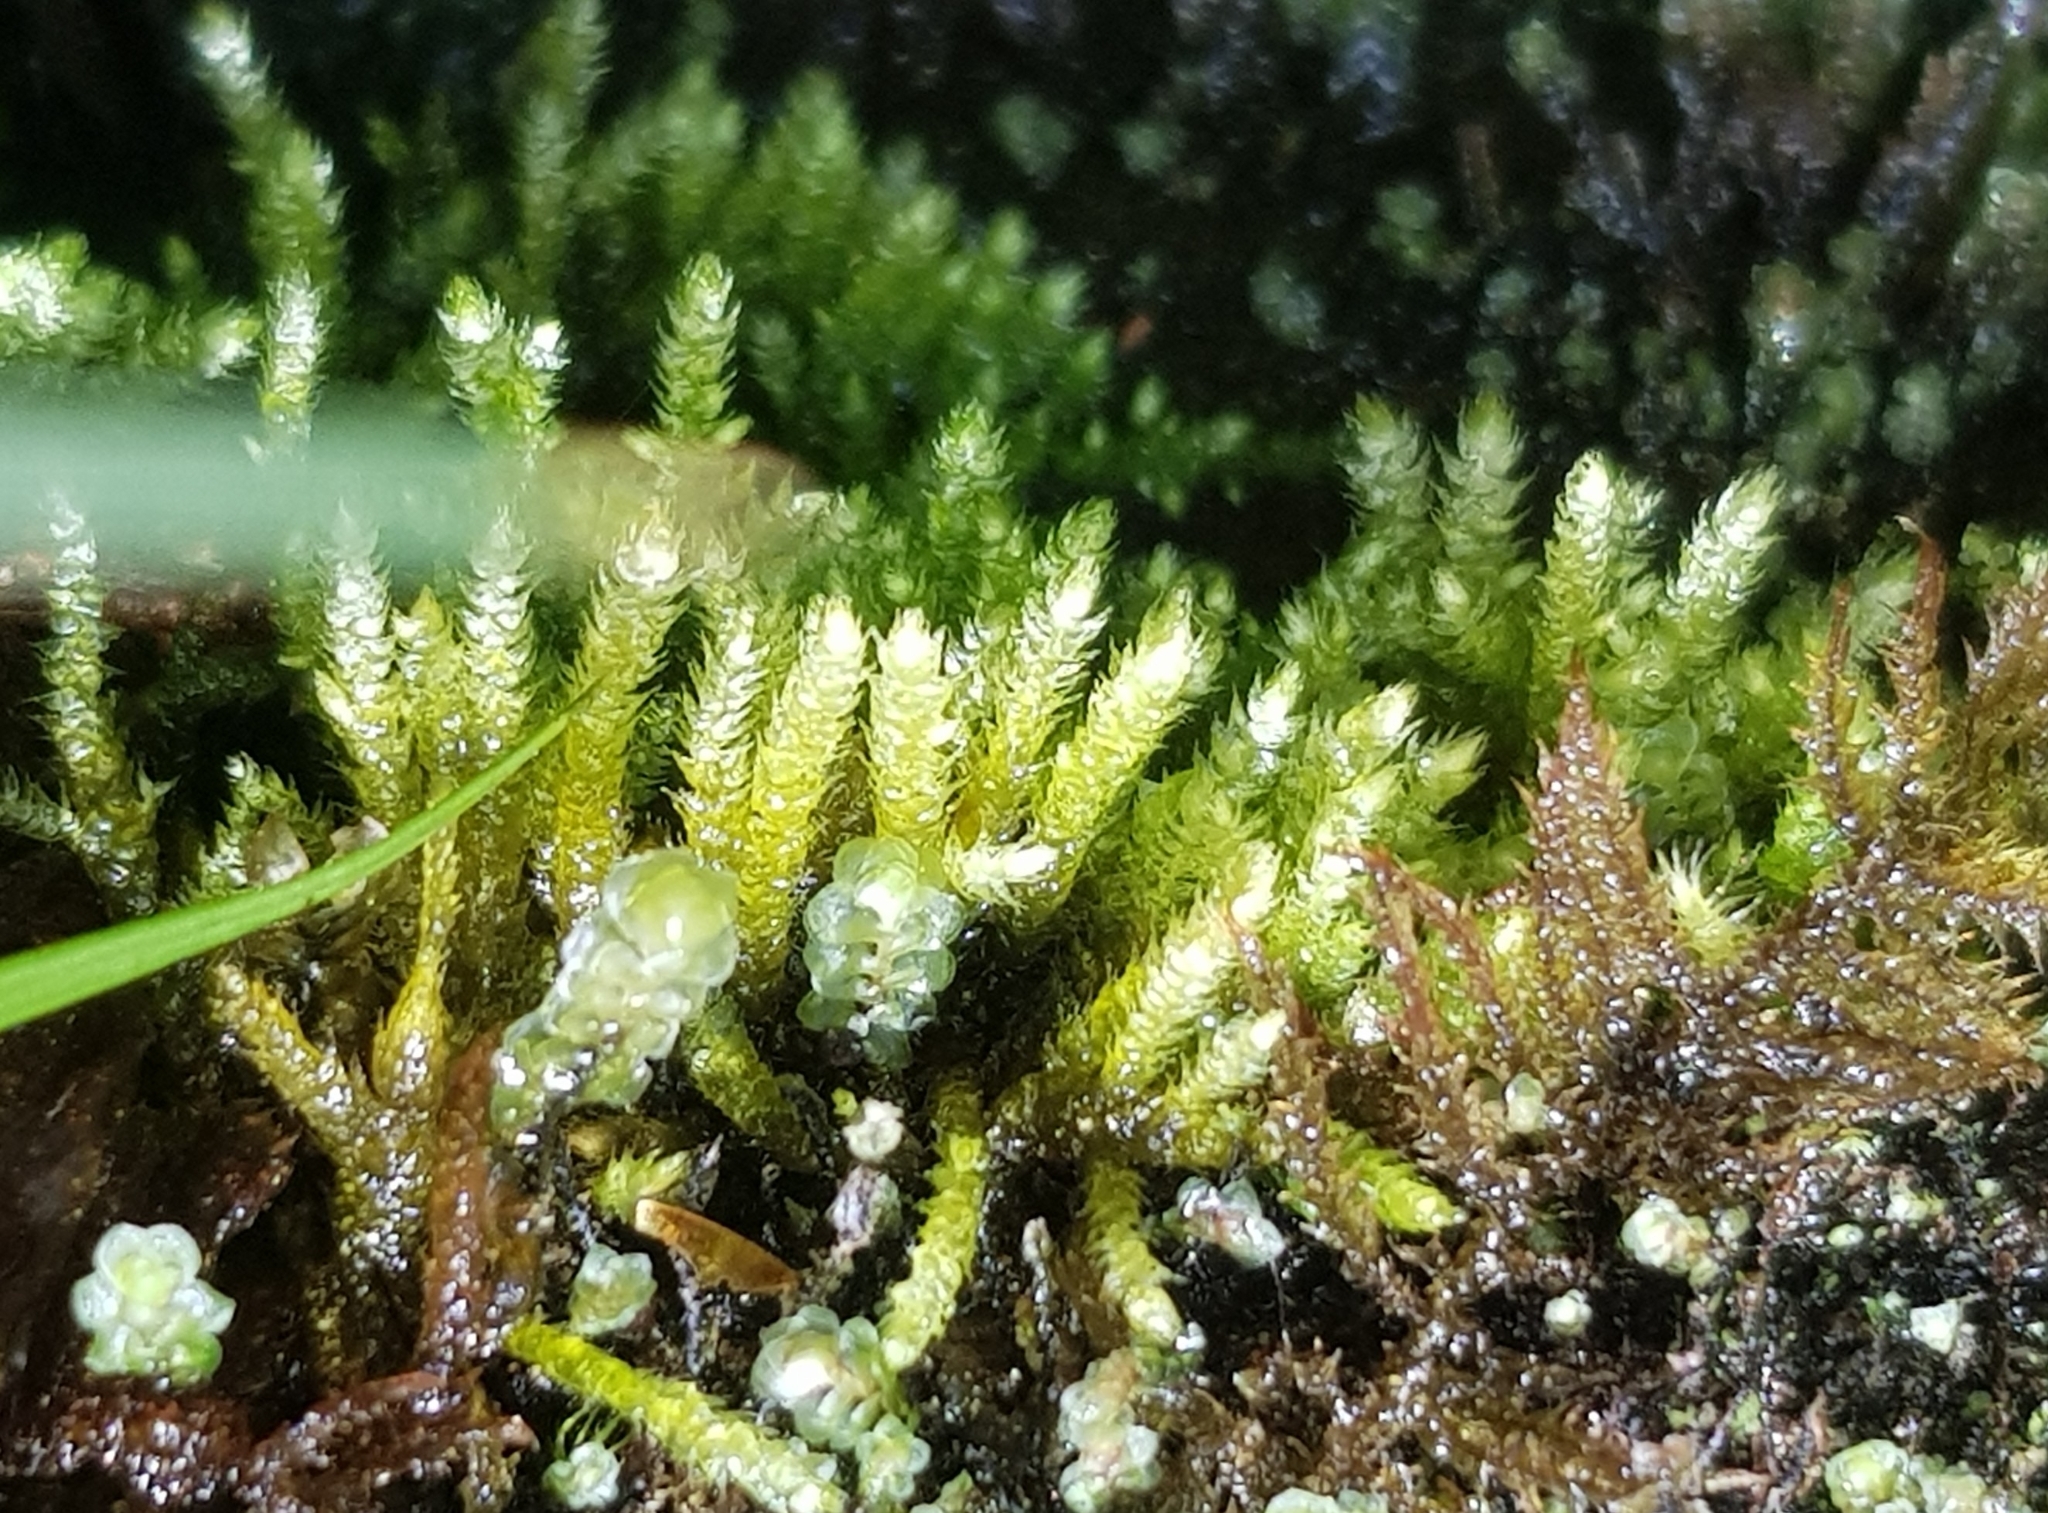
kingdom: Plantae
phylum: Bryophyta
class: Bryopsida
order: Hypnales
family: Lembophyllaceae
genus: Heterocladium
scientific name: Heterocladium heteropterum
